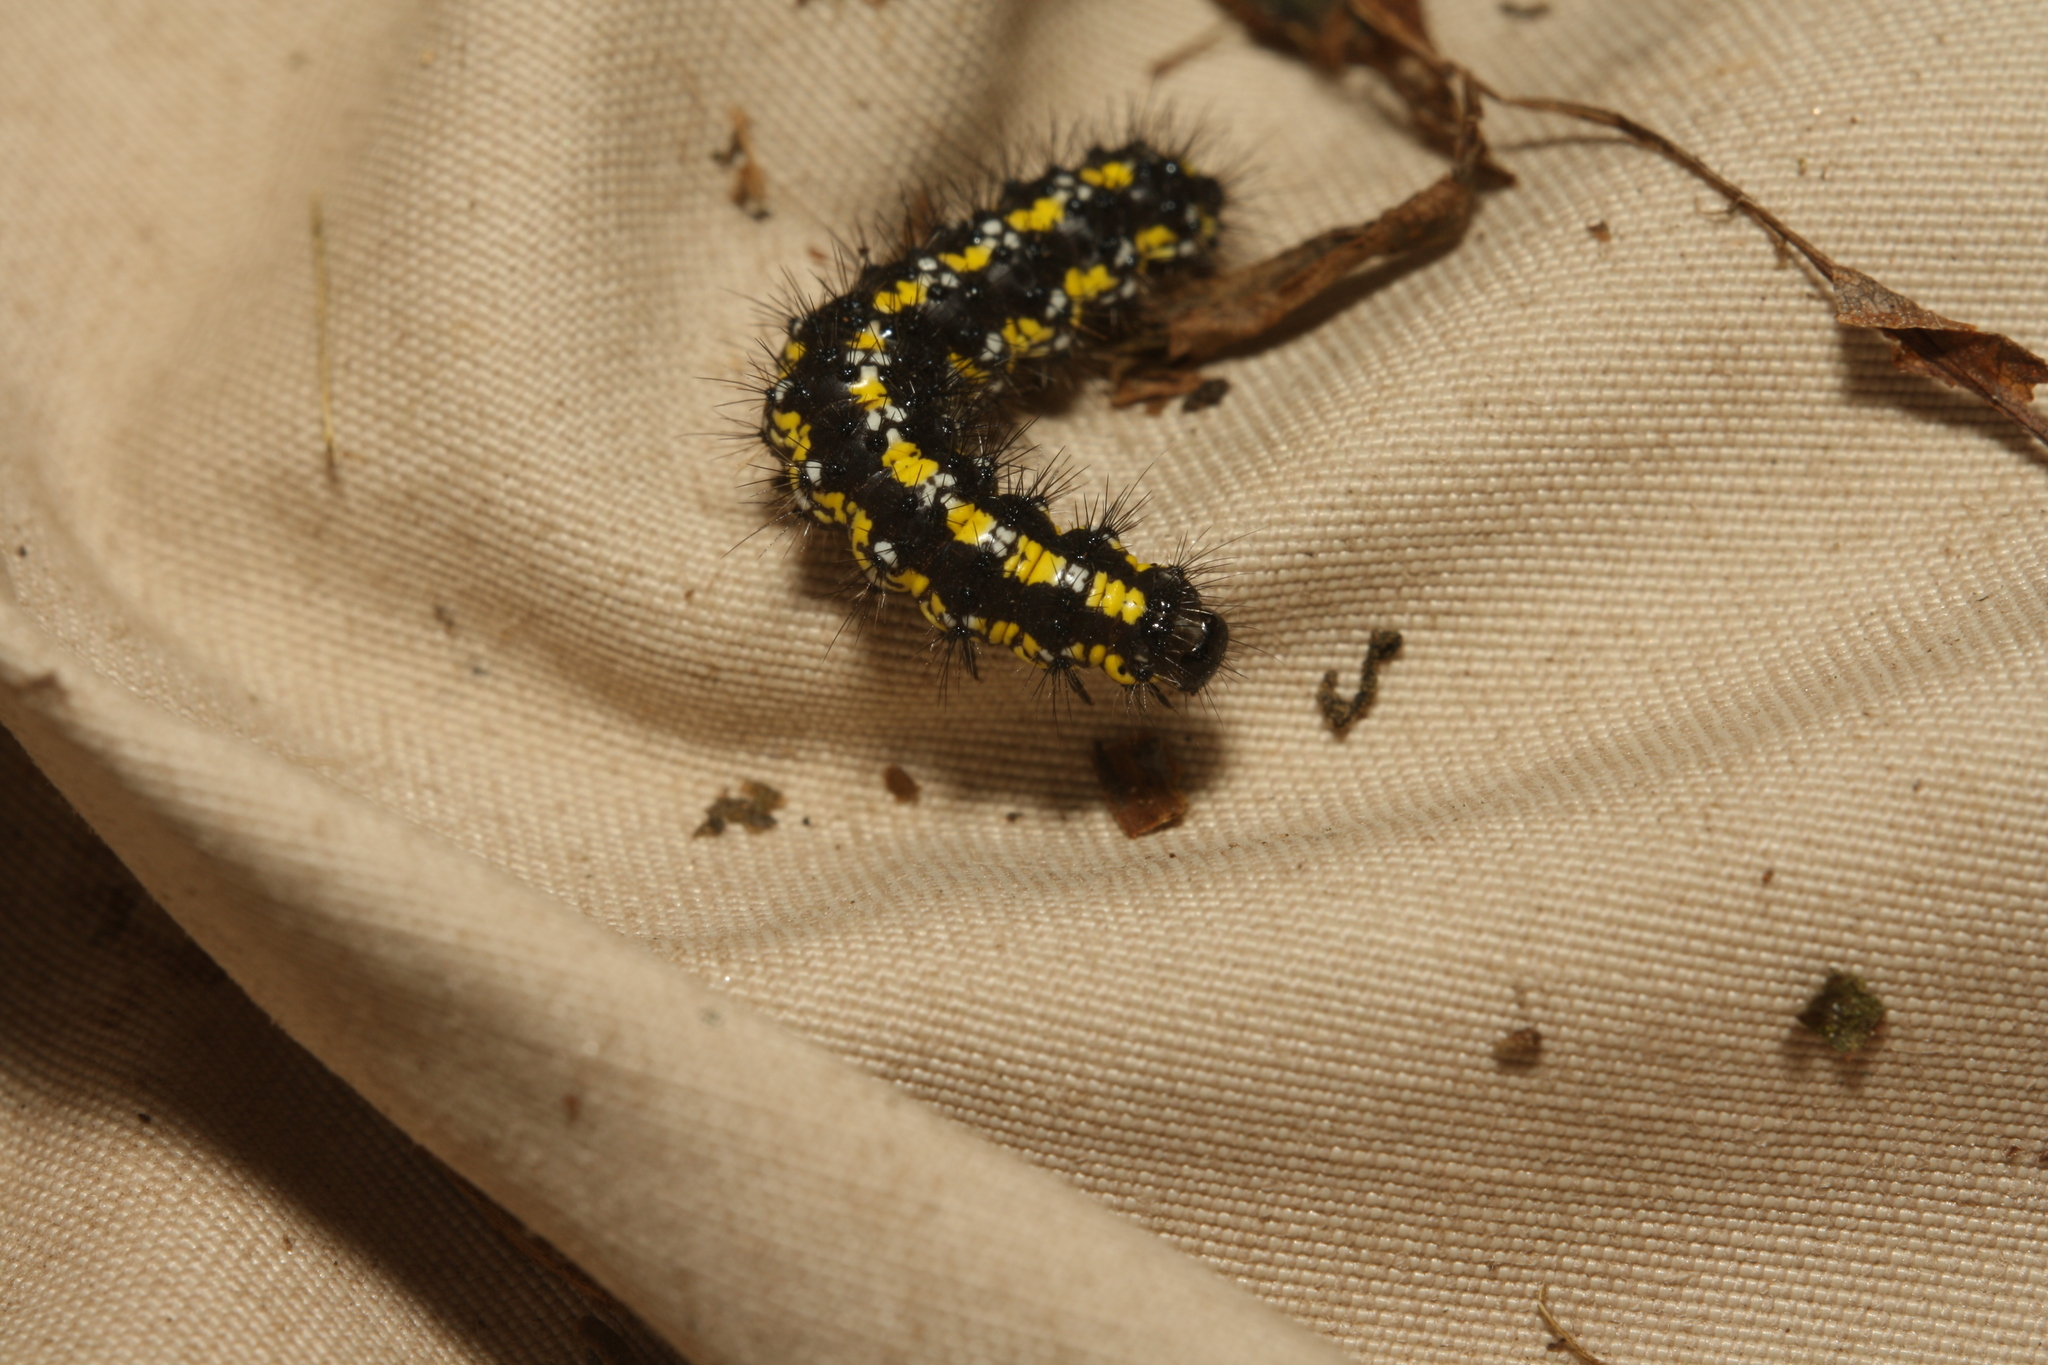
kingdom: Animalia
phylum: Arthropoda
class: Insecta
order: Lepidoptera
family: Erebidae
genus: Callimorpha
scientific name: Callimorpha dominula
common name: Scarlet tiger
